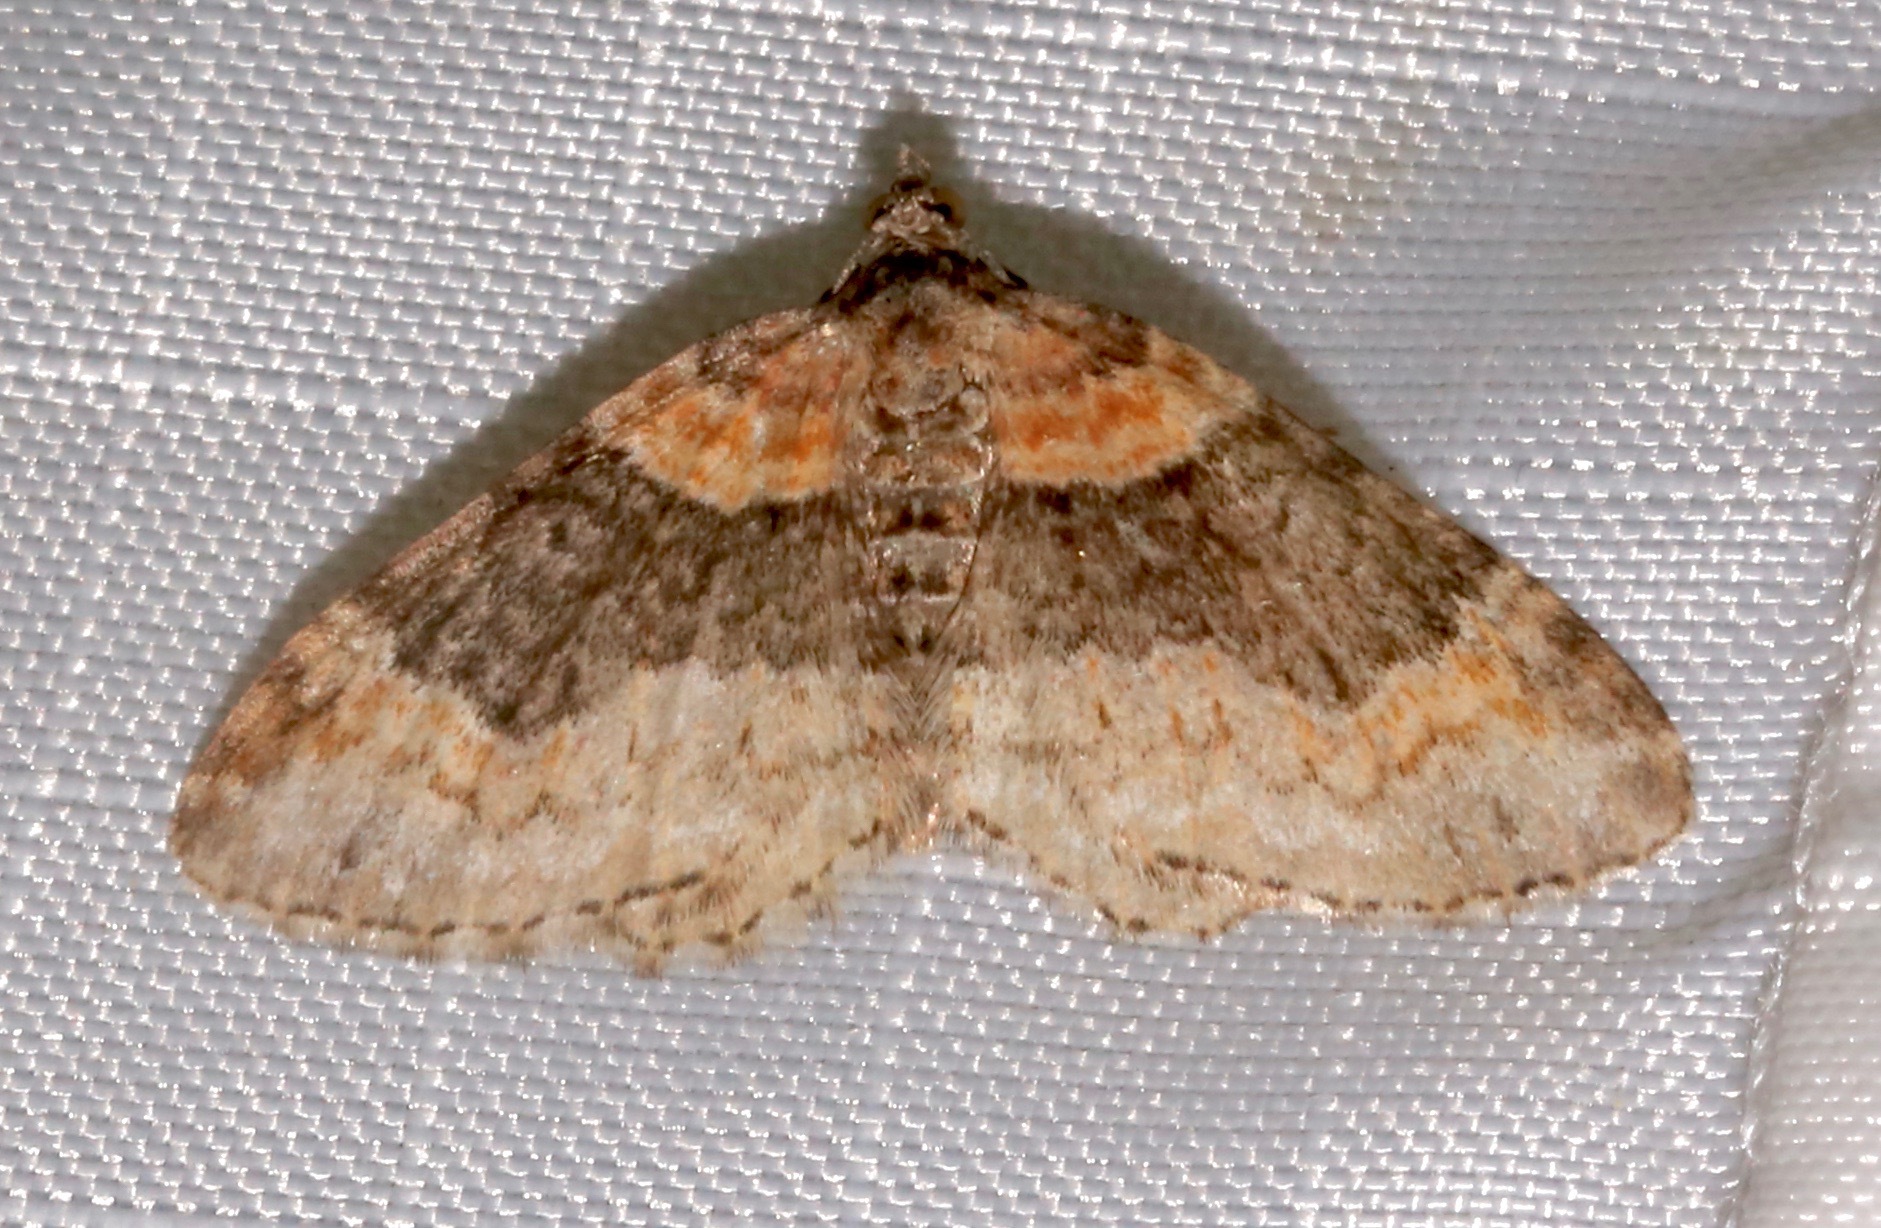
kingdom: Animalia
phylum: Arthropoda
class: Insecta
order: Lepidoptera
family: Geometridae
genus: Xanthorhoe
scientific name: Xanthorhoe ferrugata
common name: Dark-barred twin-spot carpet
